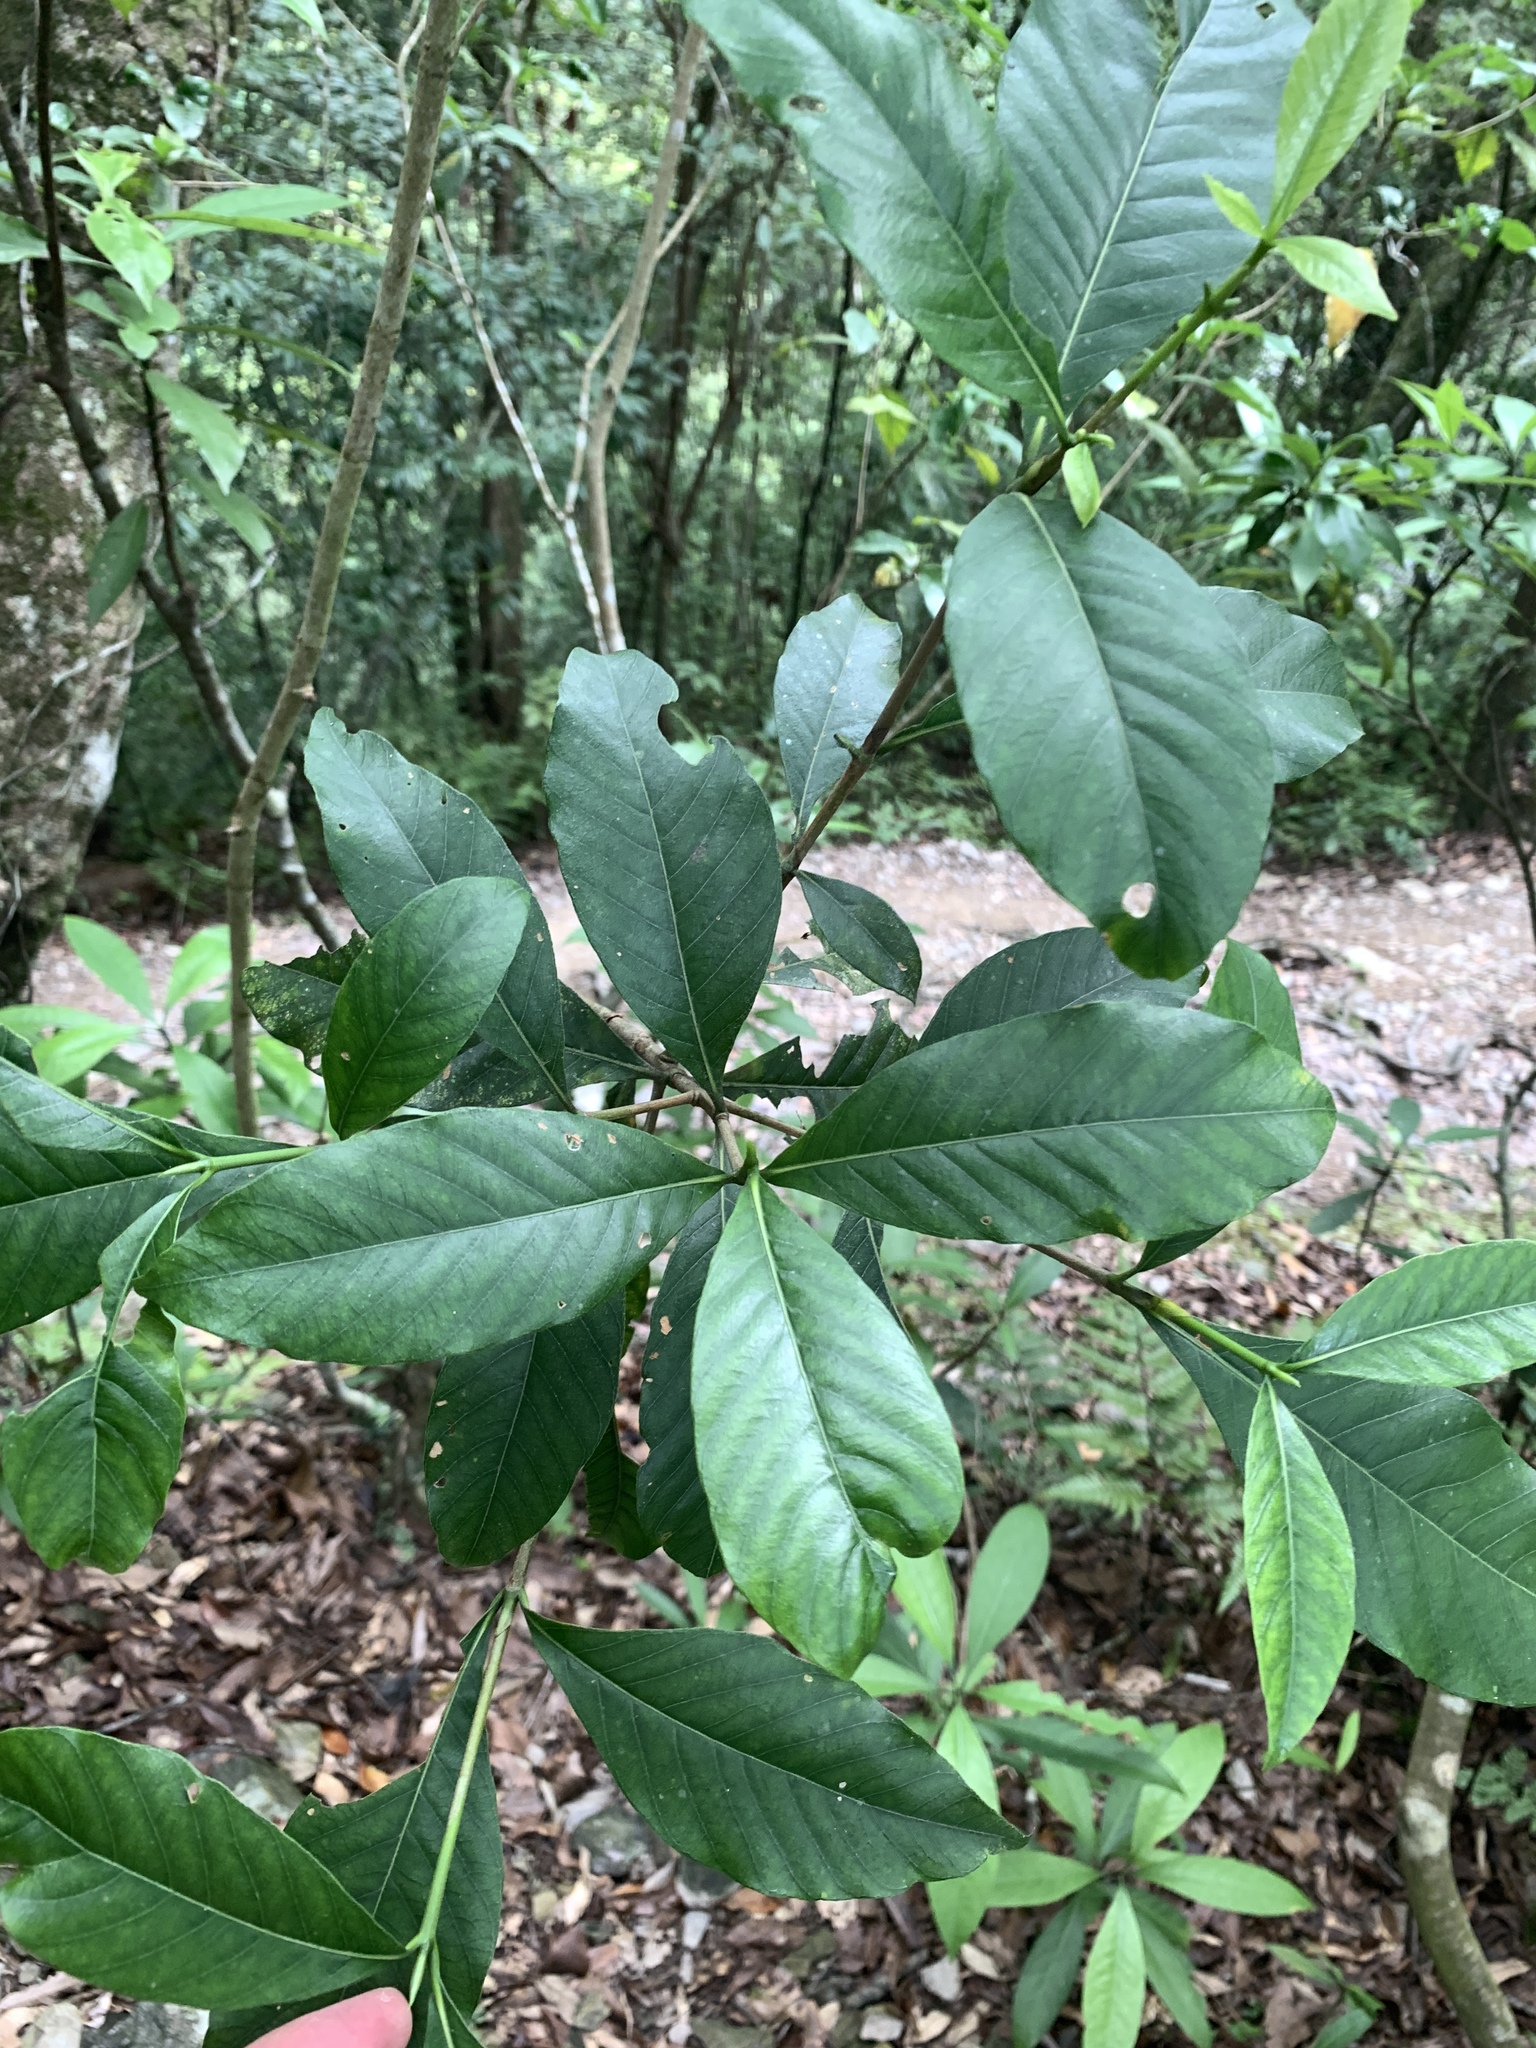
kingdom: Plantae
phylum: Tracheophyta
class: Magnoliopsida
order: Gentianales
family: Rubiaceae
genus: Gardenia
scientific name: Gardenia jasminoides
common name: Cape-jasmine
